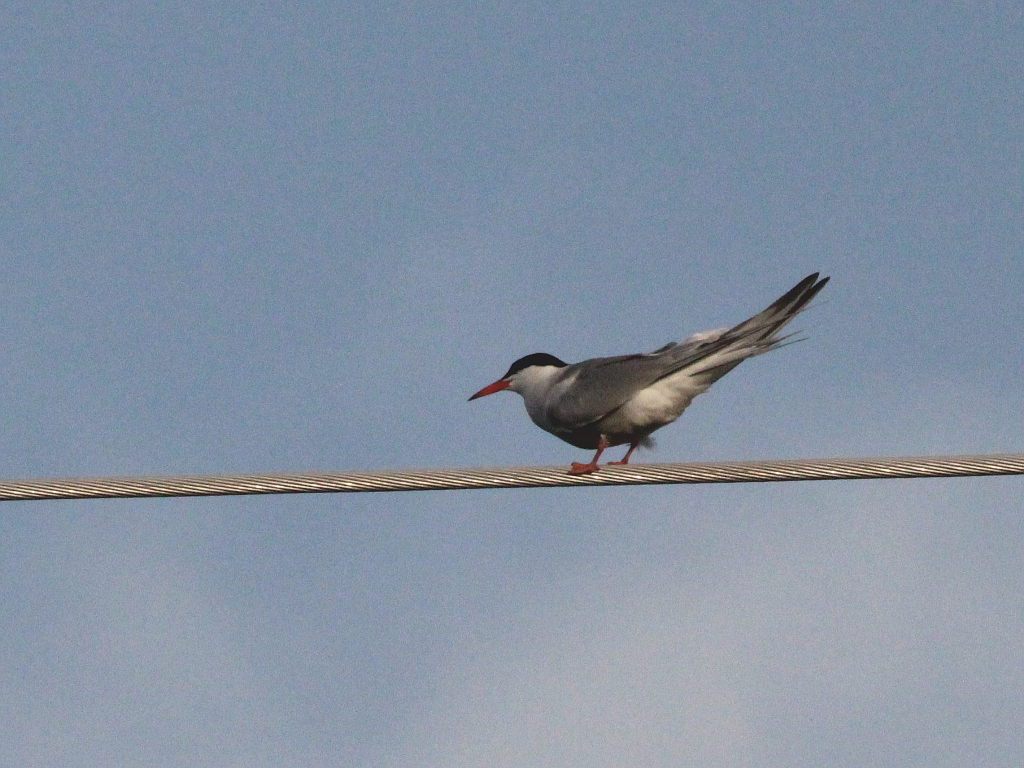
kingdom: Animalia
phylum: Chordata
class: Aves
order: Charadriiformes
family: Laridae
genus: Sterna
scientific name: Sterna hirundo
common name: Common tern
